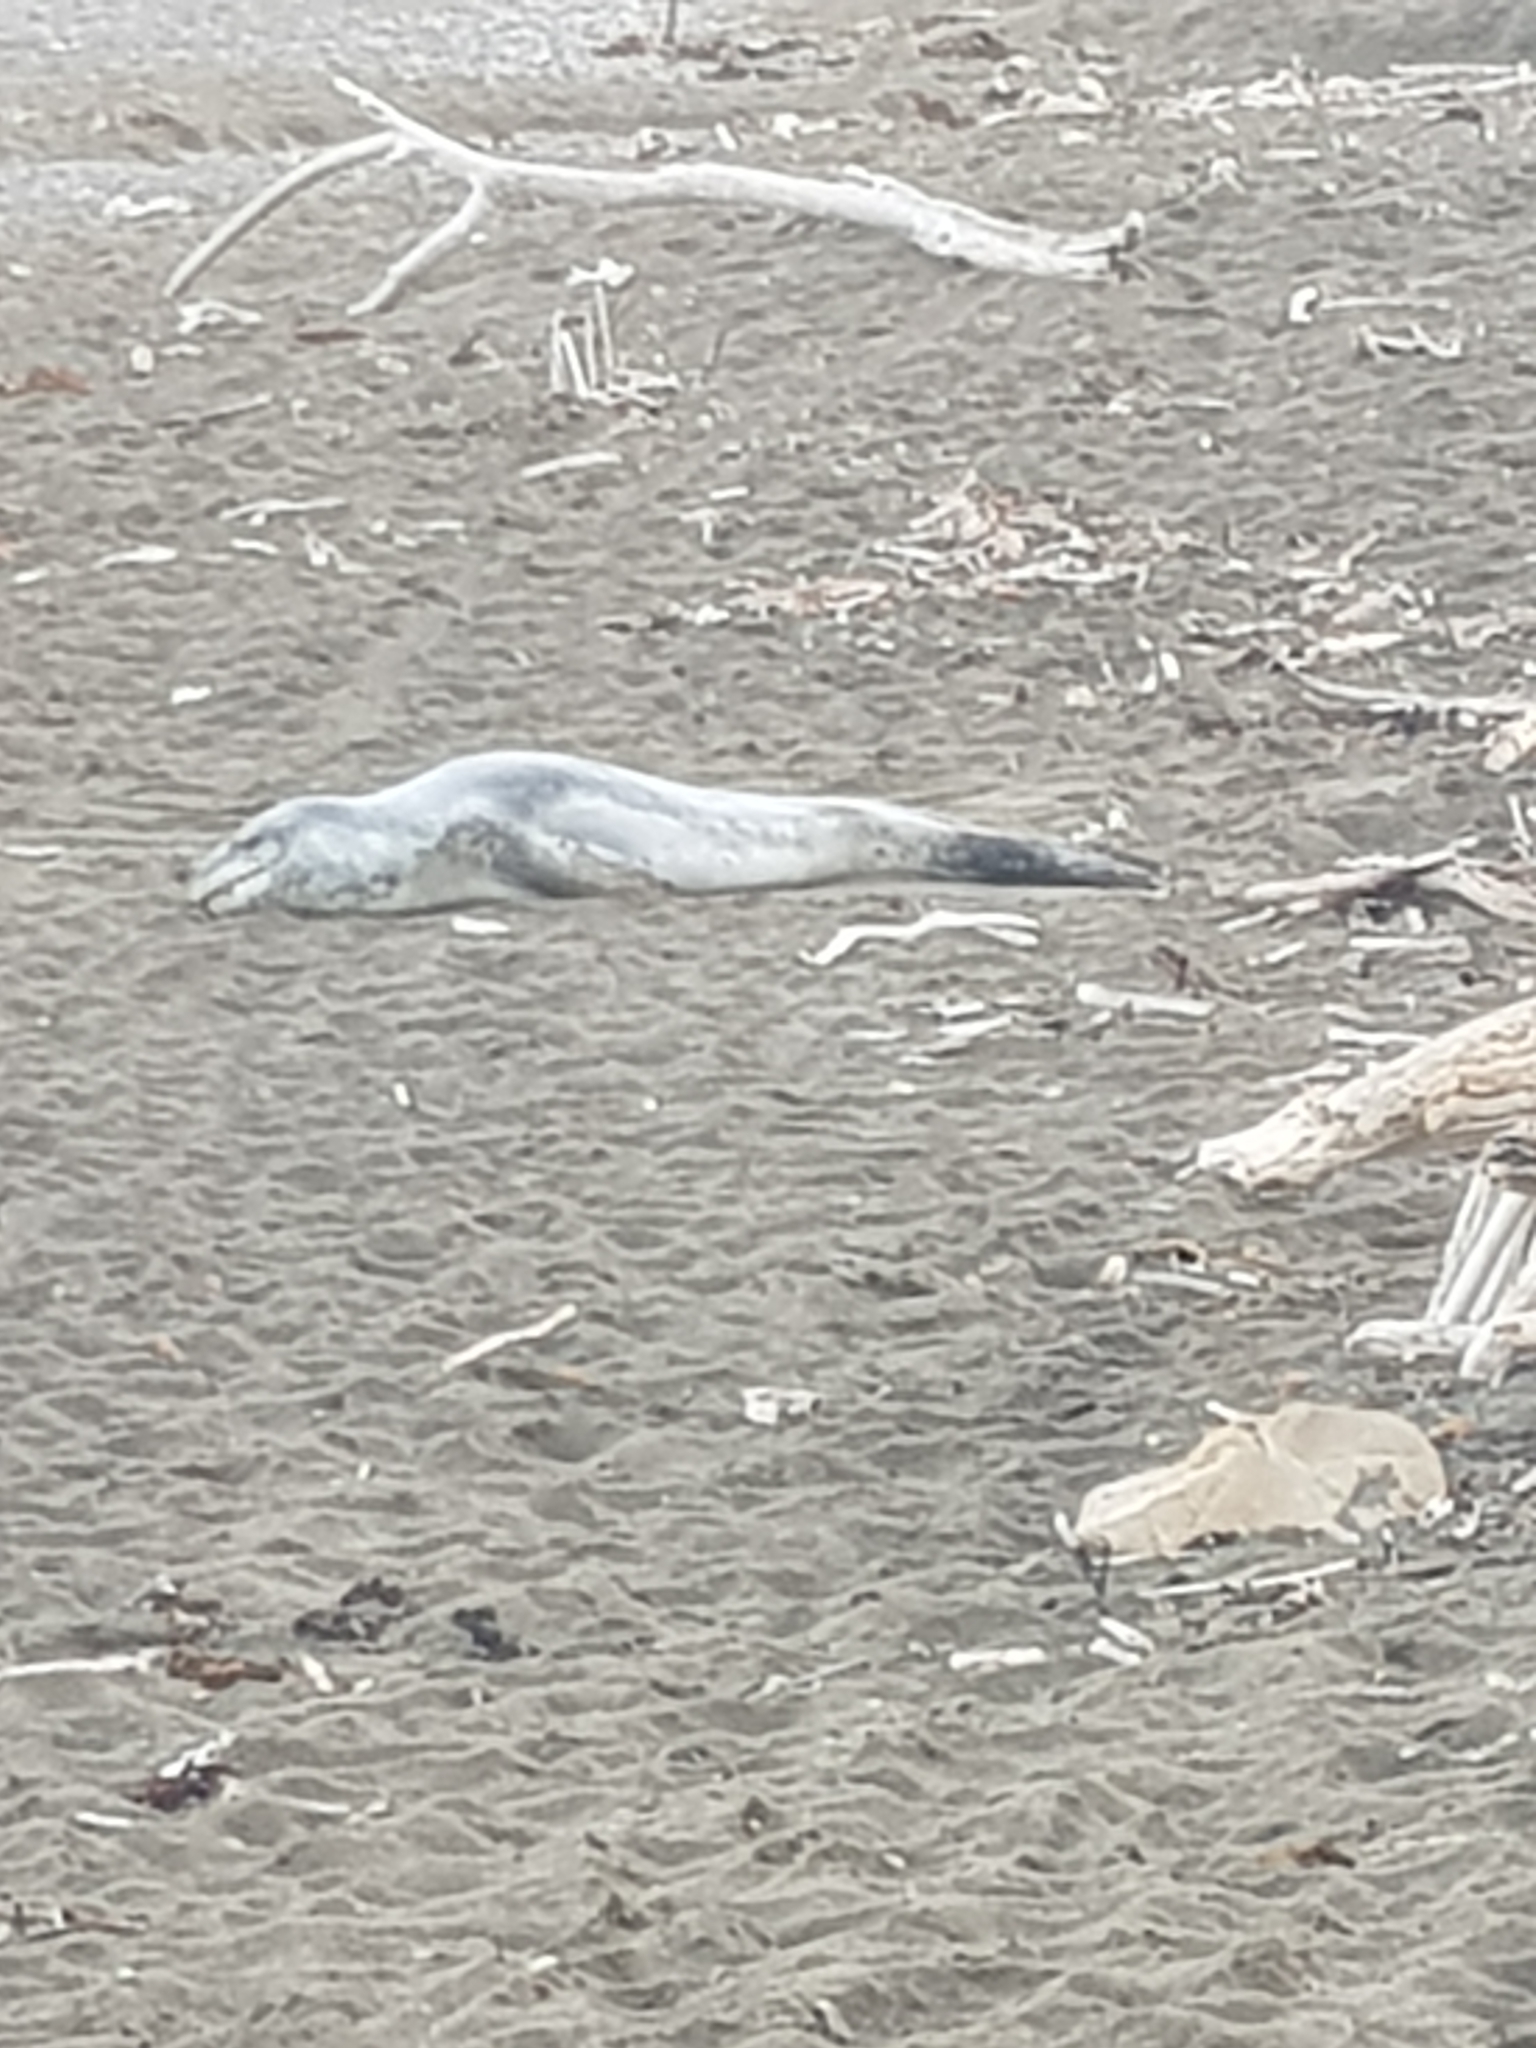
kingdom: Animalia
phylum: Chordata
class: Mammalia
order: Carnivora
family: Phocidae
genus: Hydrurga
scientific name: Hydrurga leptonyx
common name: Leopard seal
